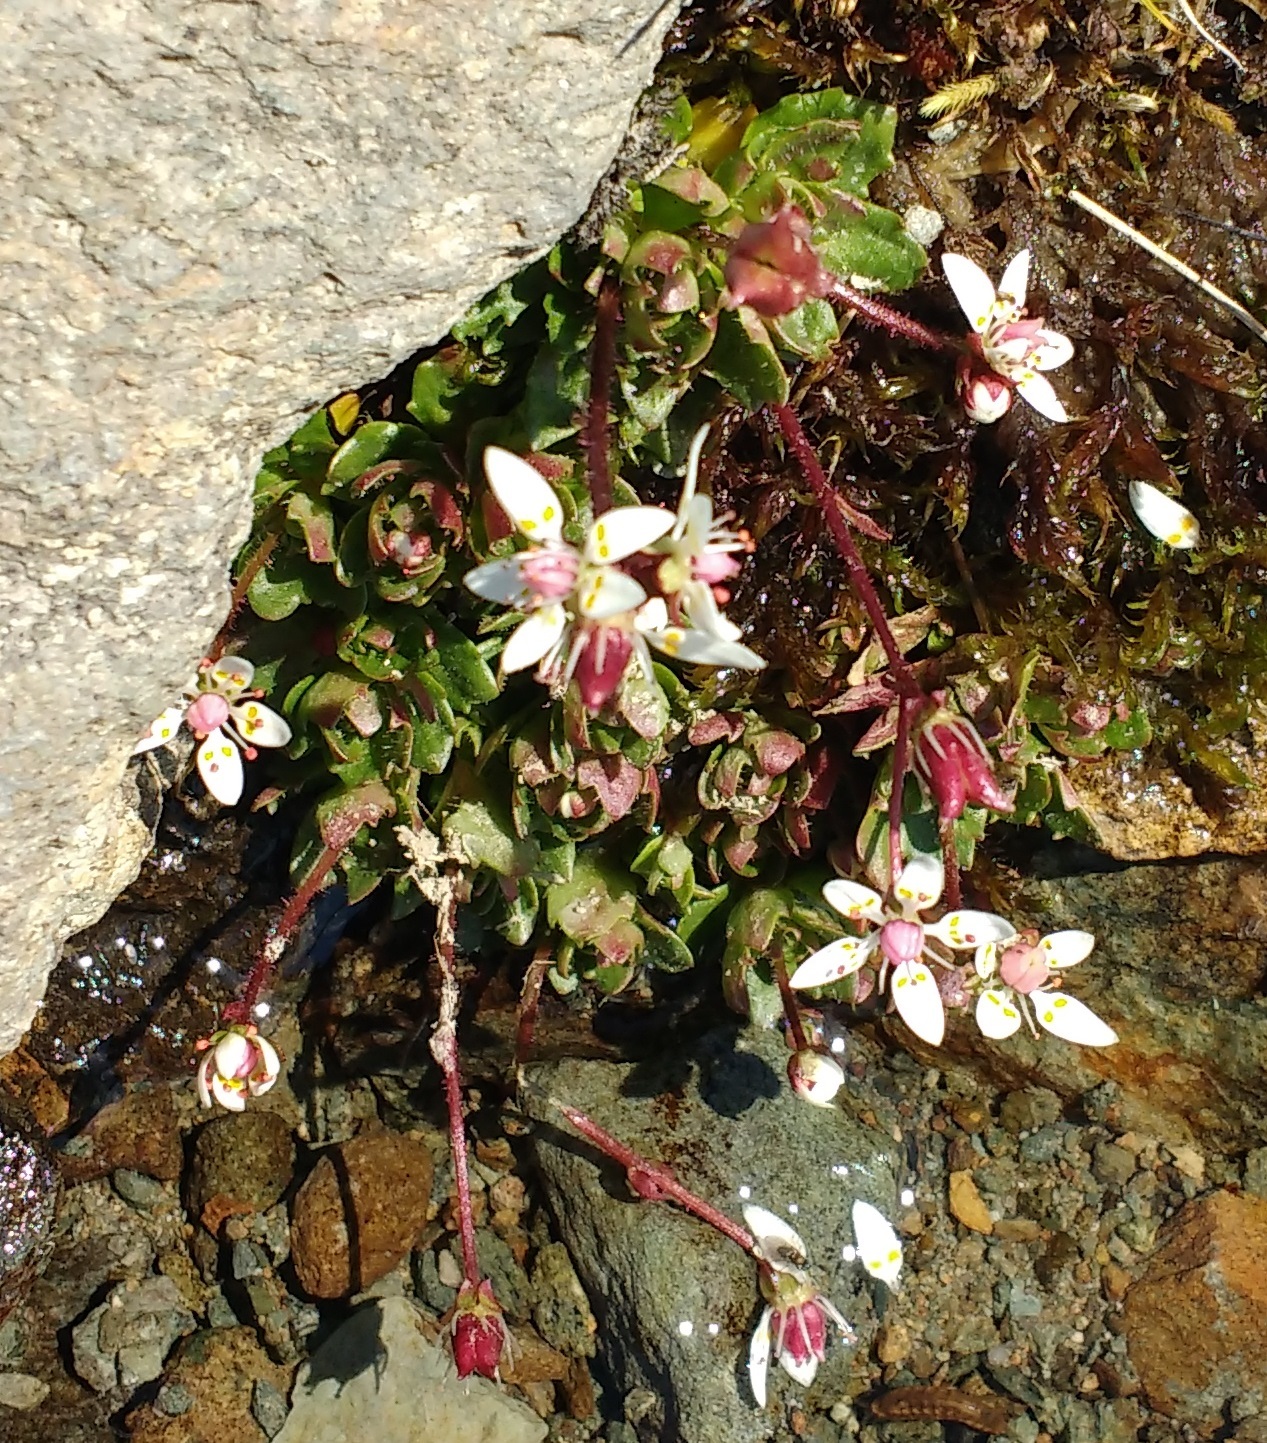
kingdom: Plantae
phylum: Tracheophyta
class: Magnoliopsida
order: Saxifragales
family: Saxifragaceae
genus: Micranthes
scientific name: Micranthes stellaris
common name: Starry saxifrage
